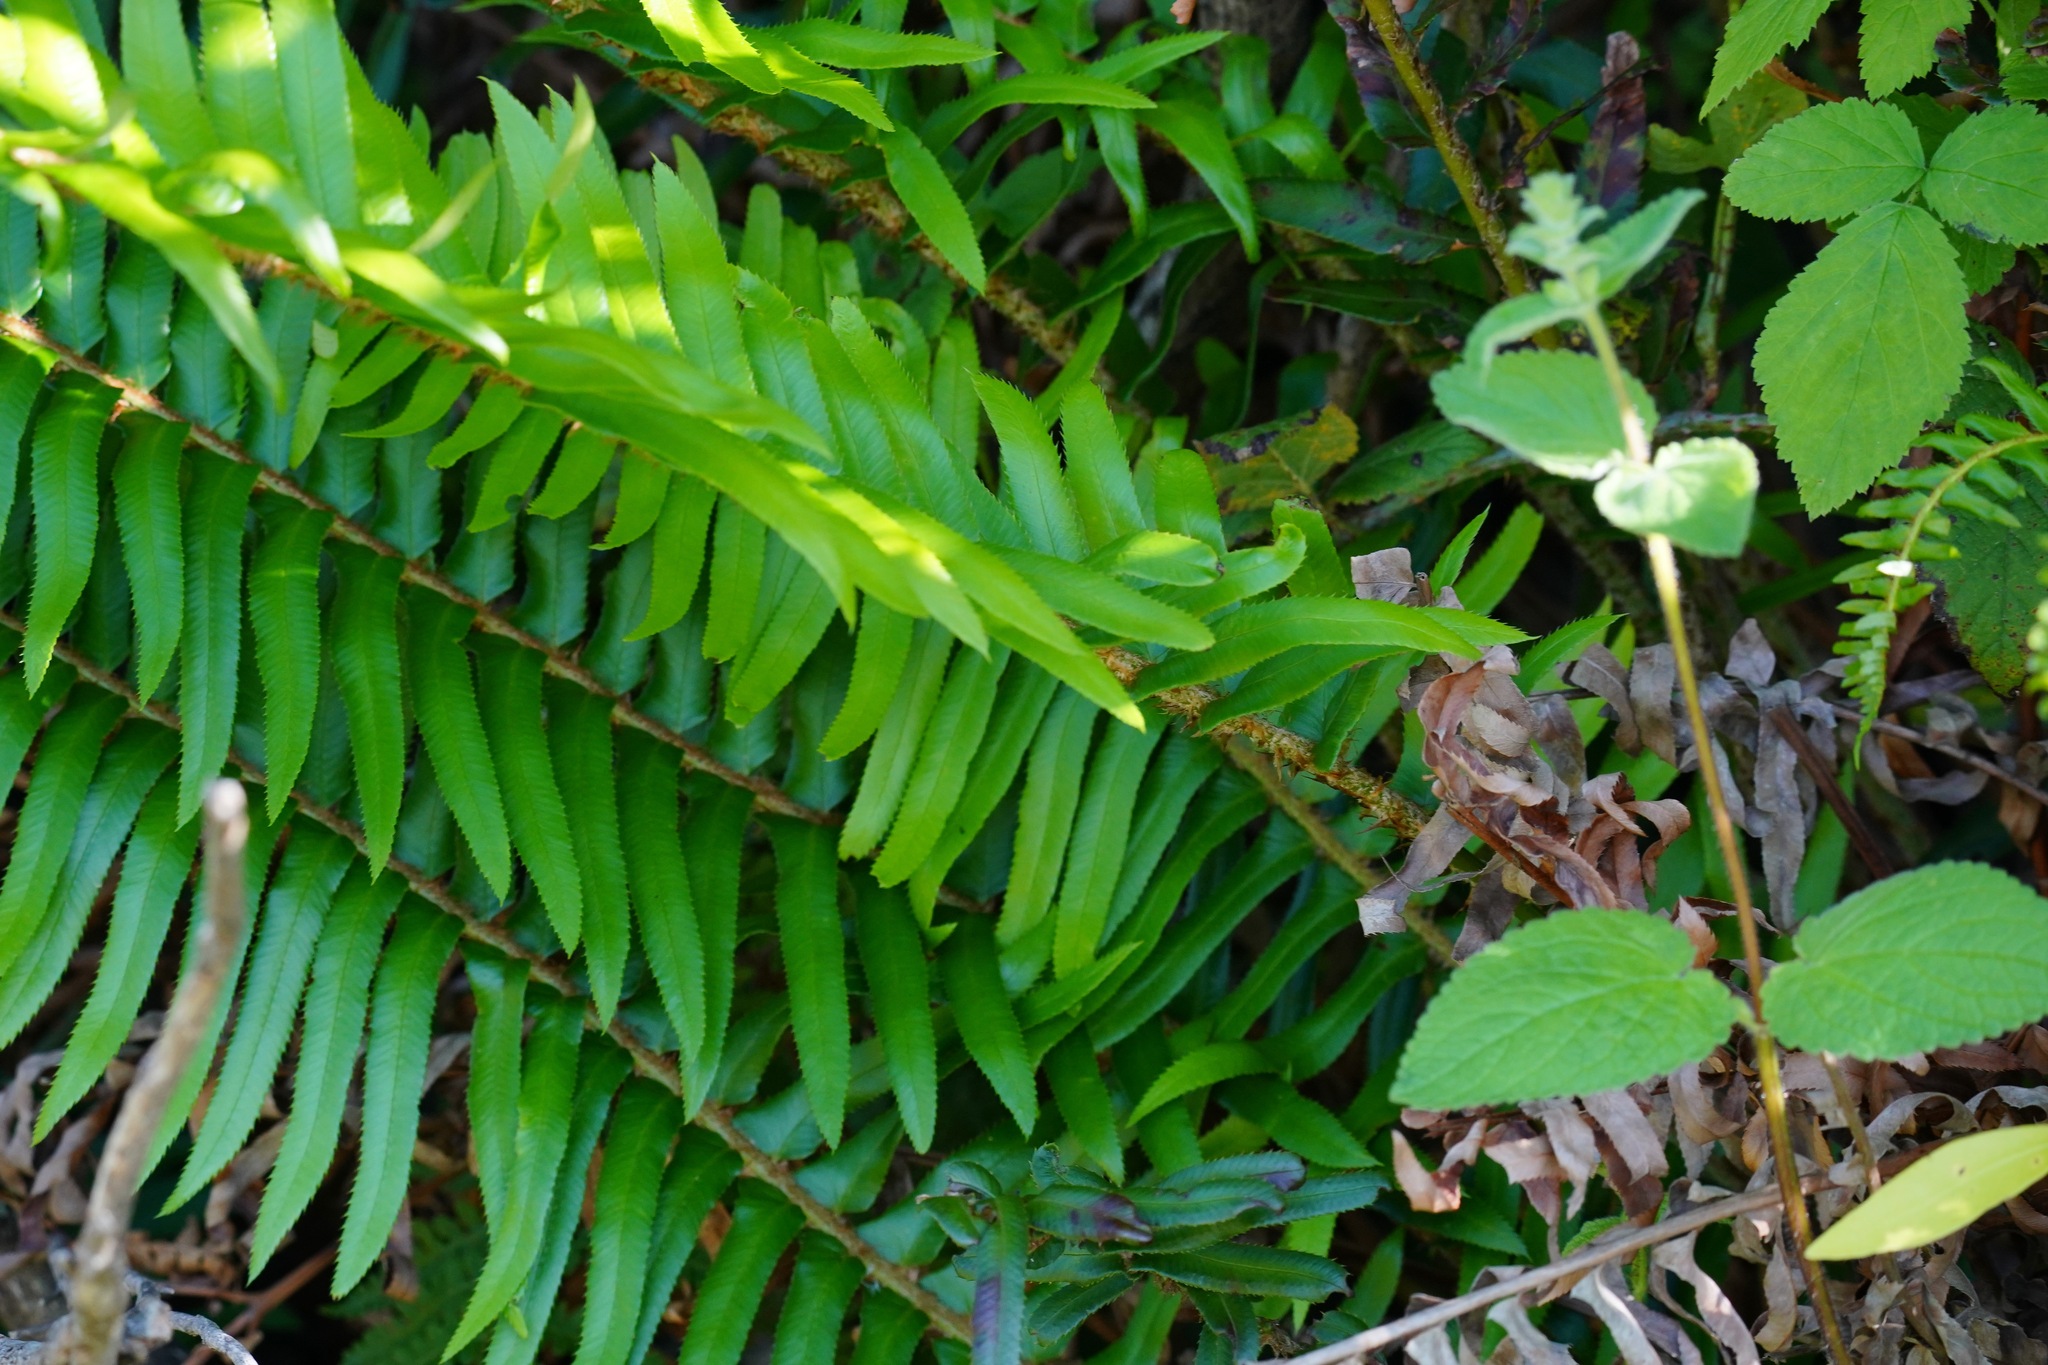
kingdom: Plantae
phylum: Tracheophyta
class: Polypodiopsida
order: Polypodiales
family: Dryopteridaceae
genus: Polystichum
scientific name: Polystichum munitum
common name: Western sword-fern
